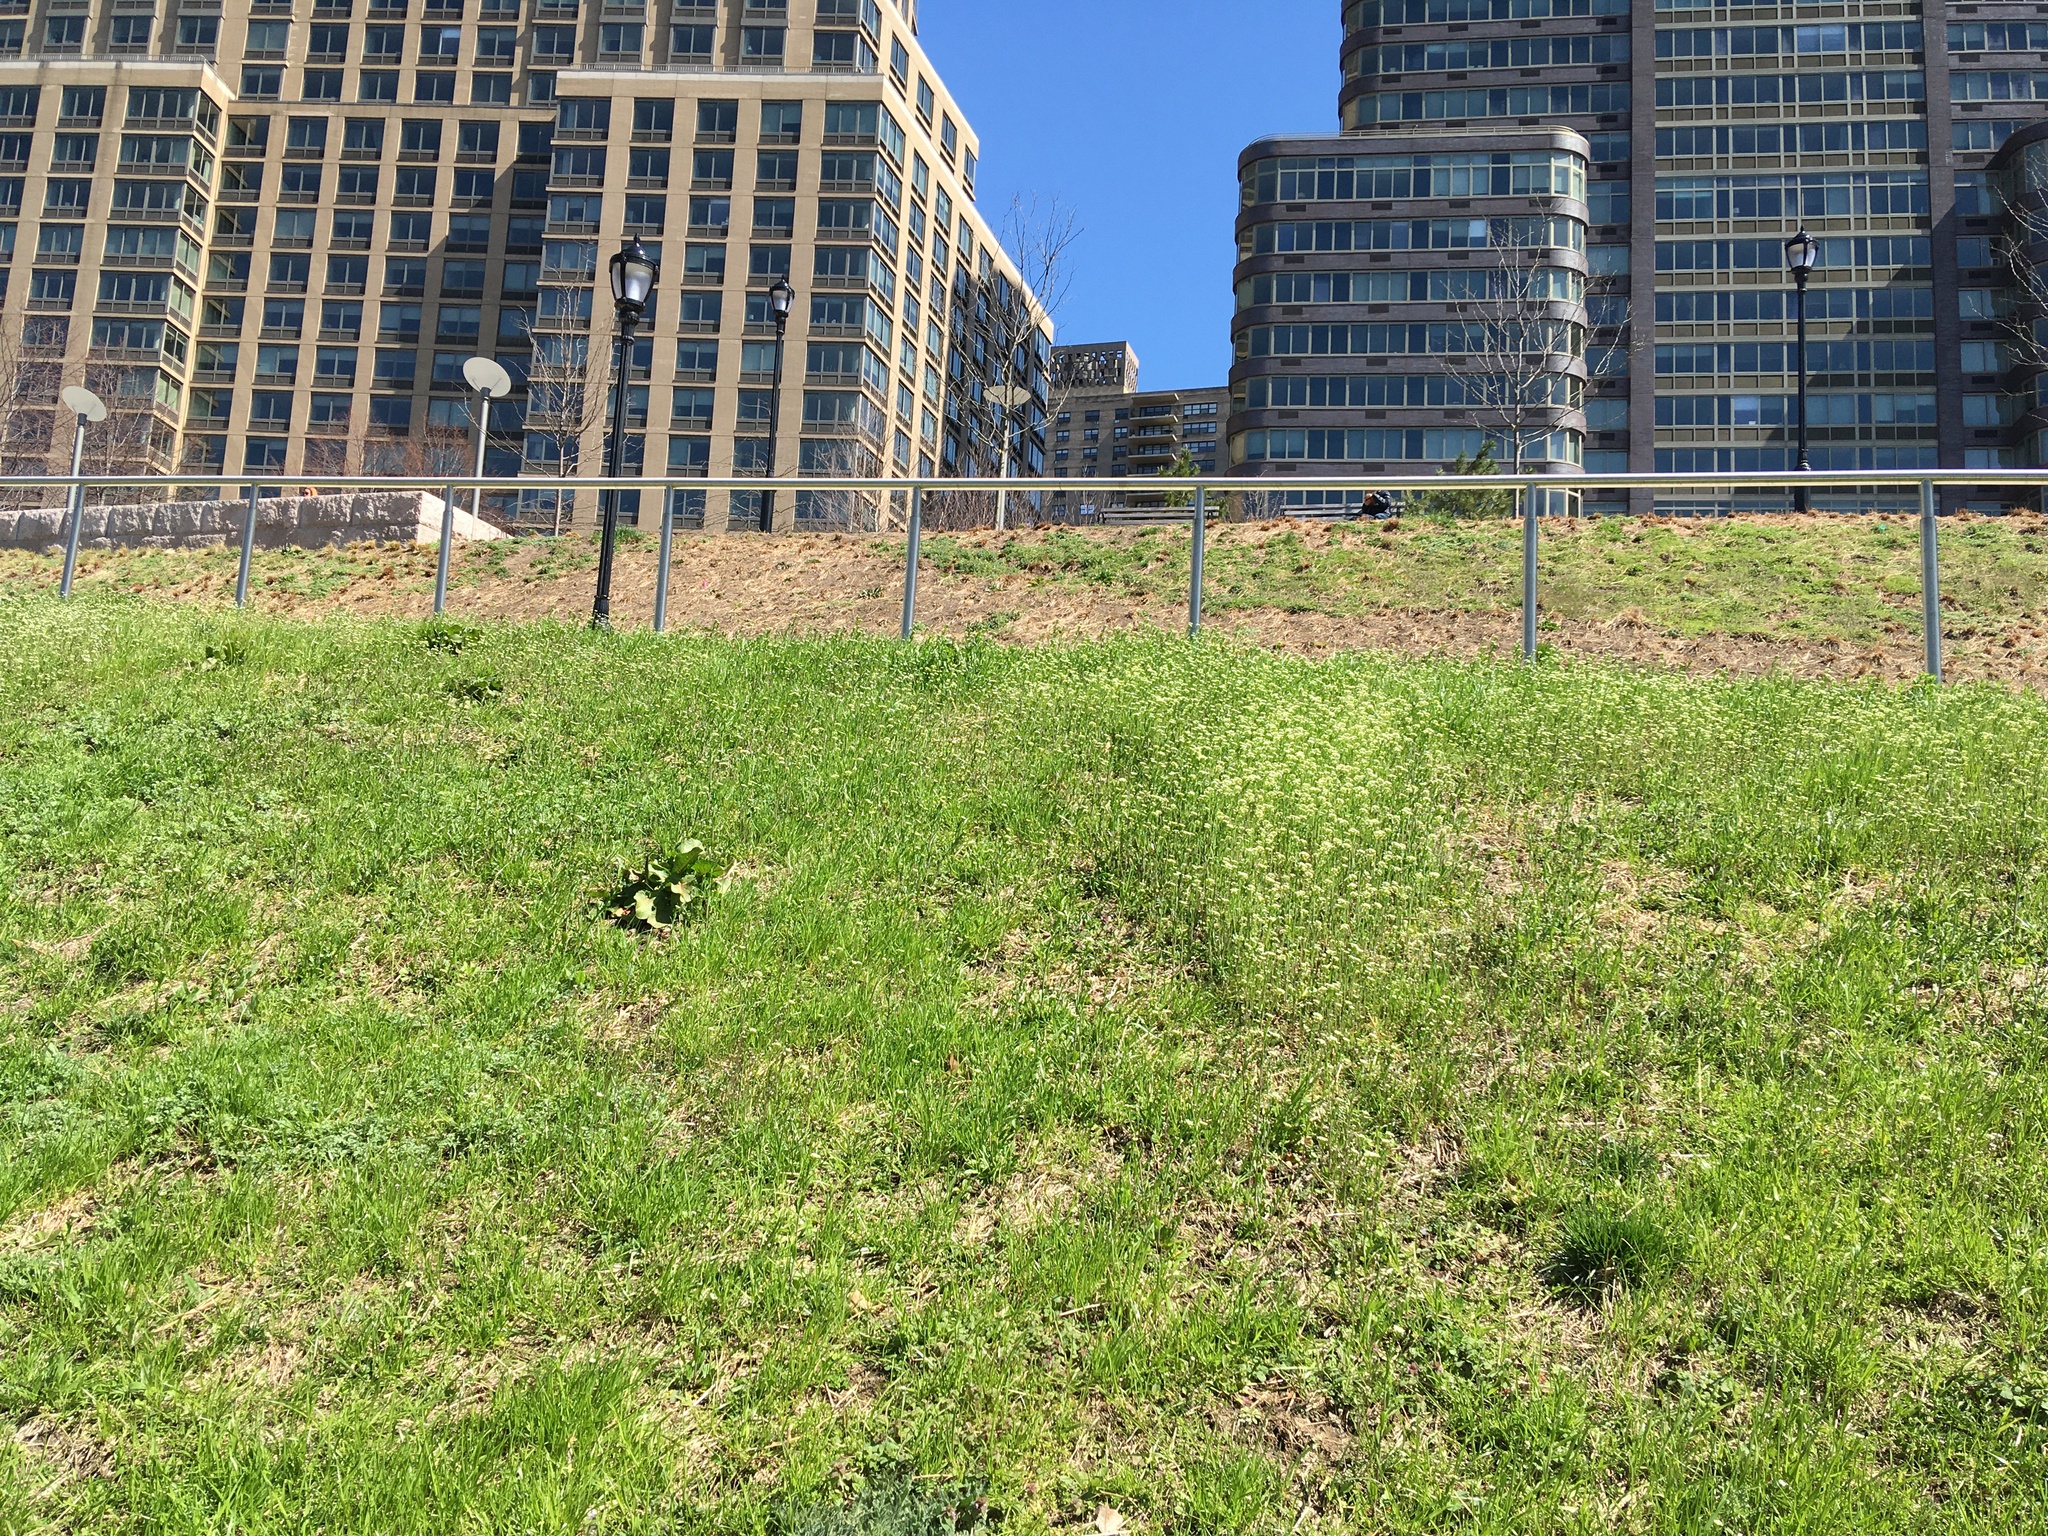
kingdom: Plantae
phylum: Tracheophyta
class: Magnoliopsida
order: Brassicales
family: Brassicaceae
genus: Mummenhoffia
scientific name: Mummenhoffia alliacea
